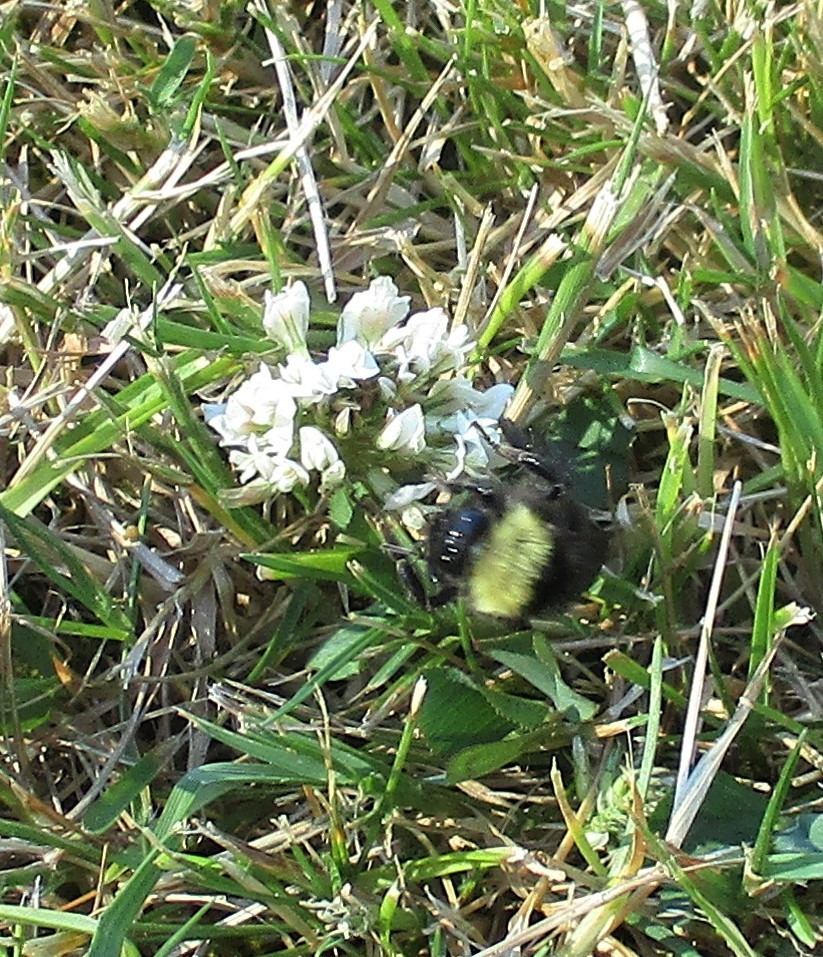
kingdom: Animalia
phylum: Arthropoda
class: Insecta
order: Hymenoptera
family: Apidae
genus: Bombus
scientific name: Bombus californicus
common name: California bumble bee
